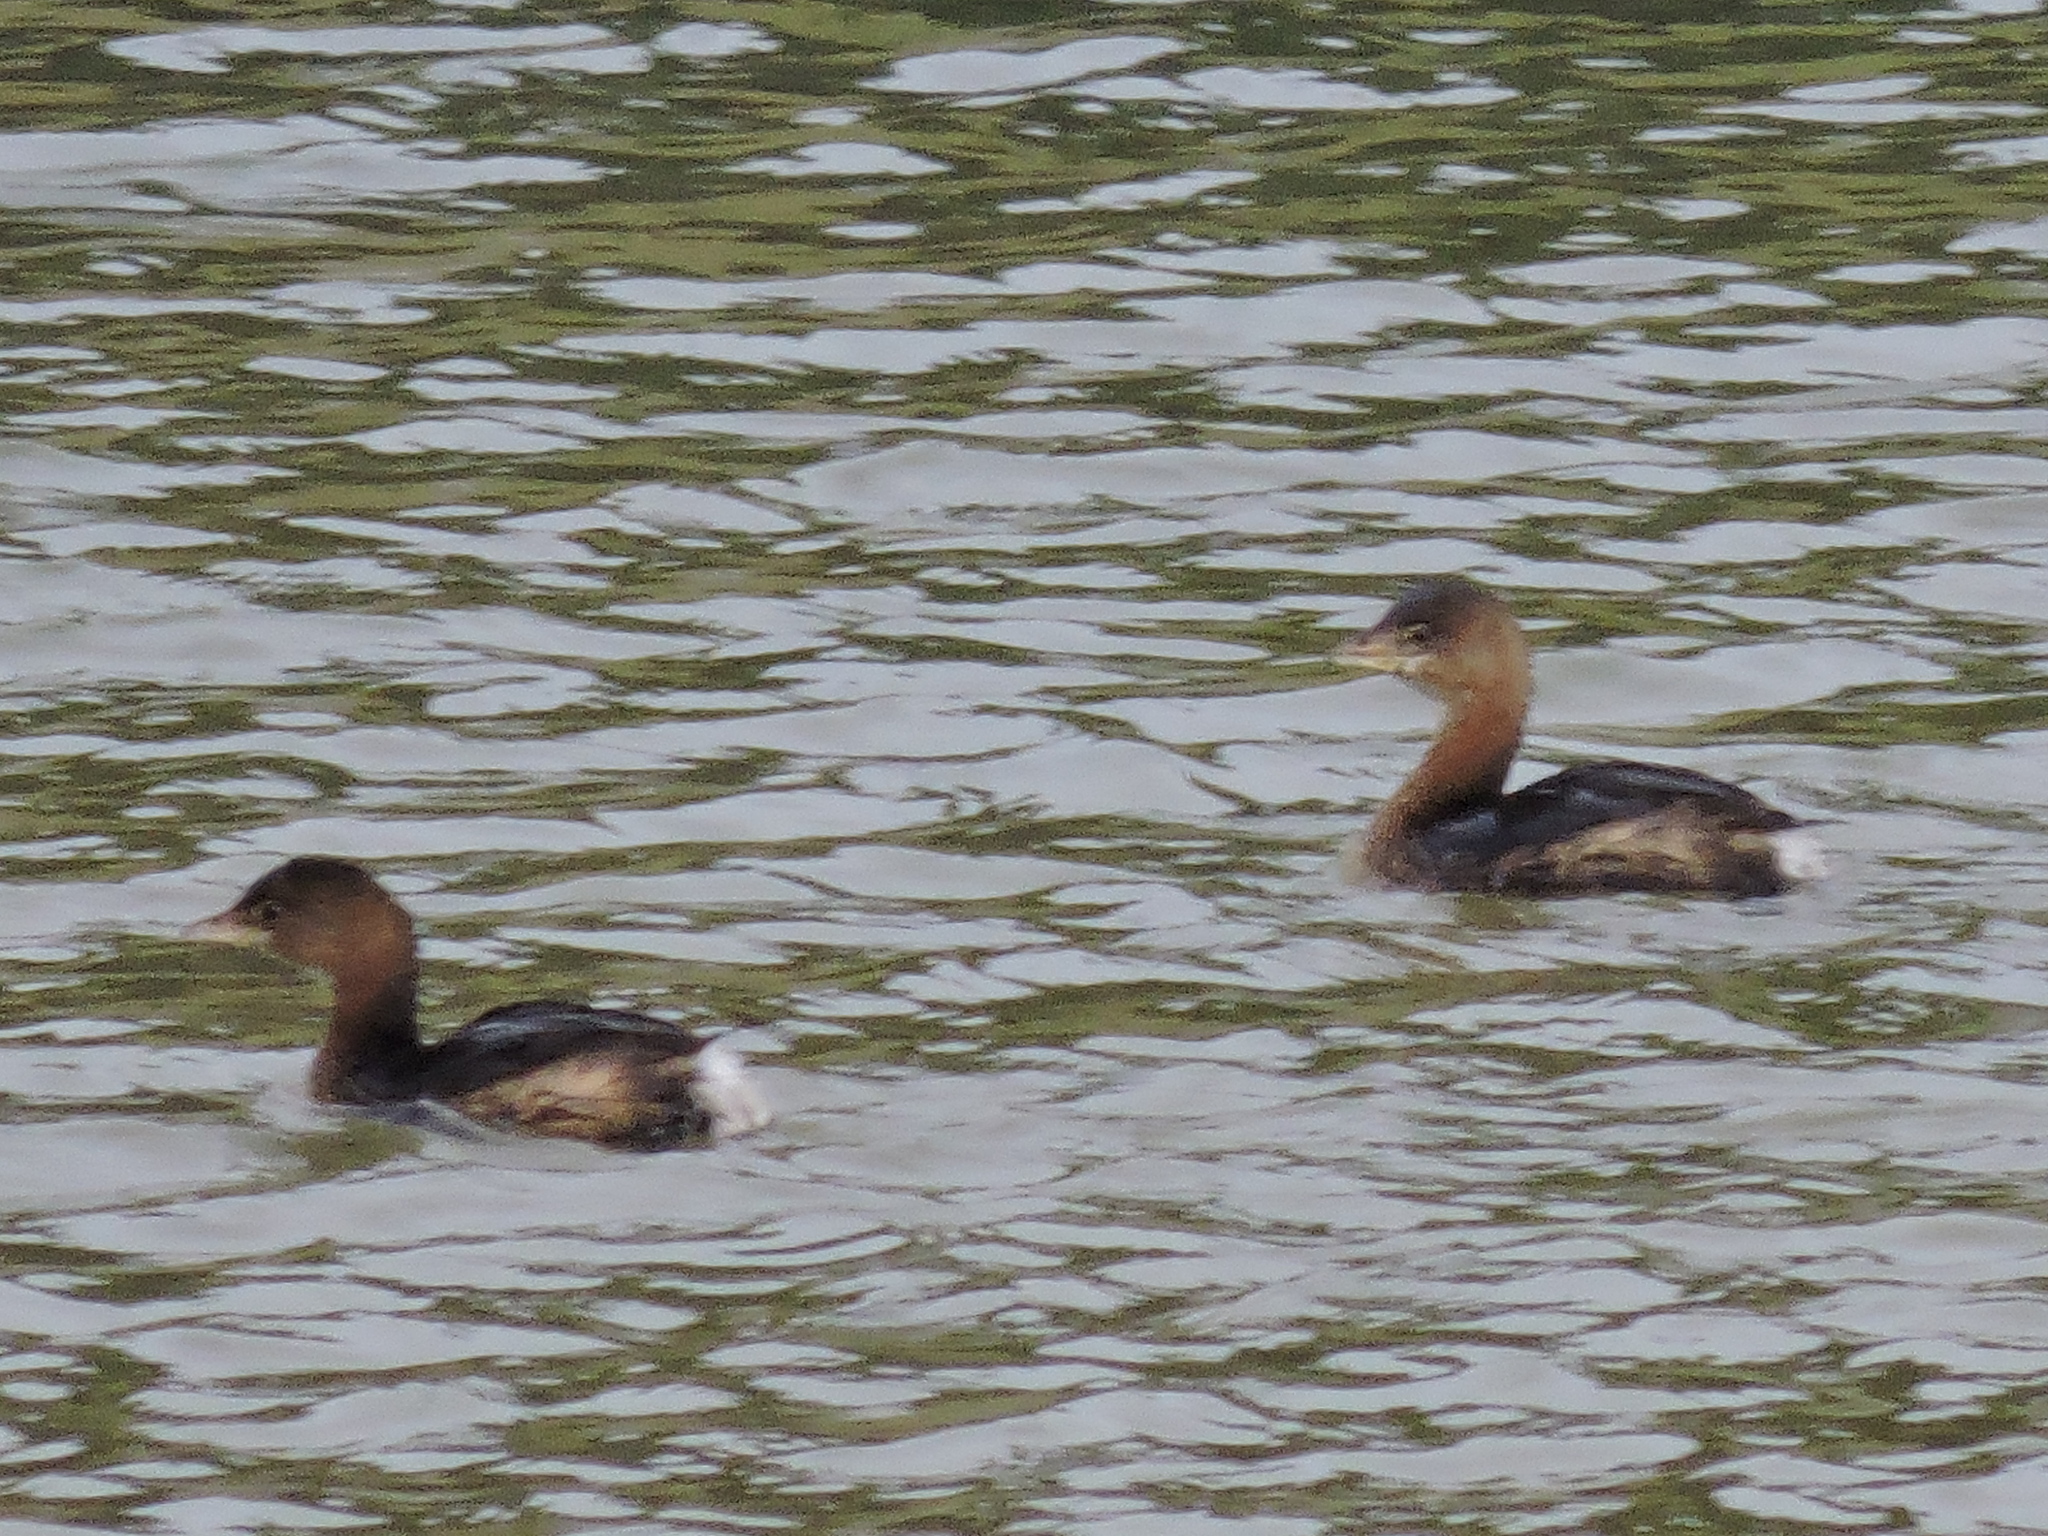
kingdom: Animalia
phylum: Chordata
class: Aves
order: Podicipediformes
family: Podicipedidae
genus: Podilymbus
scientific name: Podilymbus podiceps
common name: Pied-billed grebe
